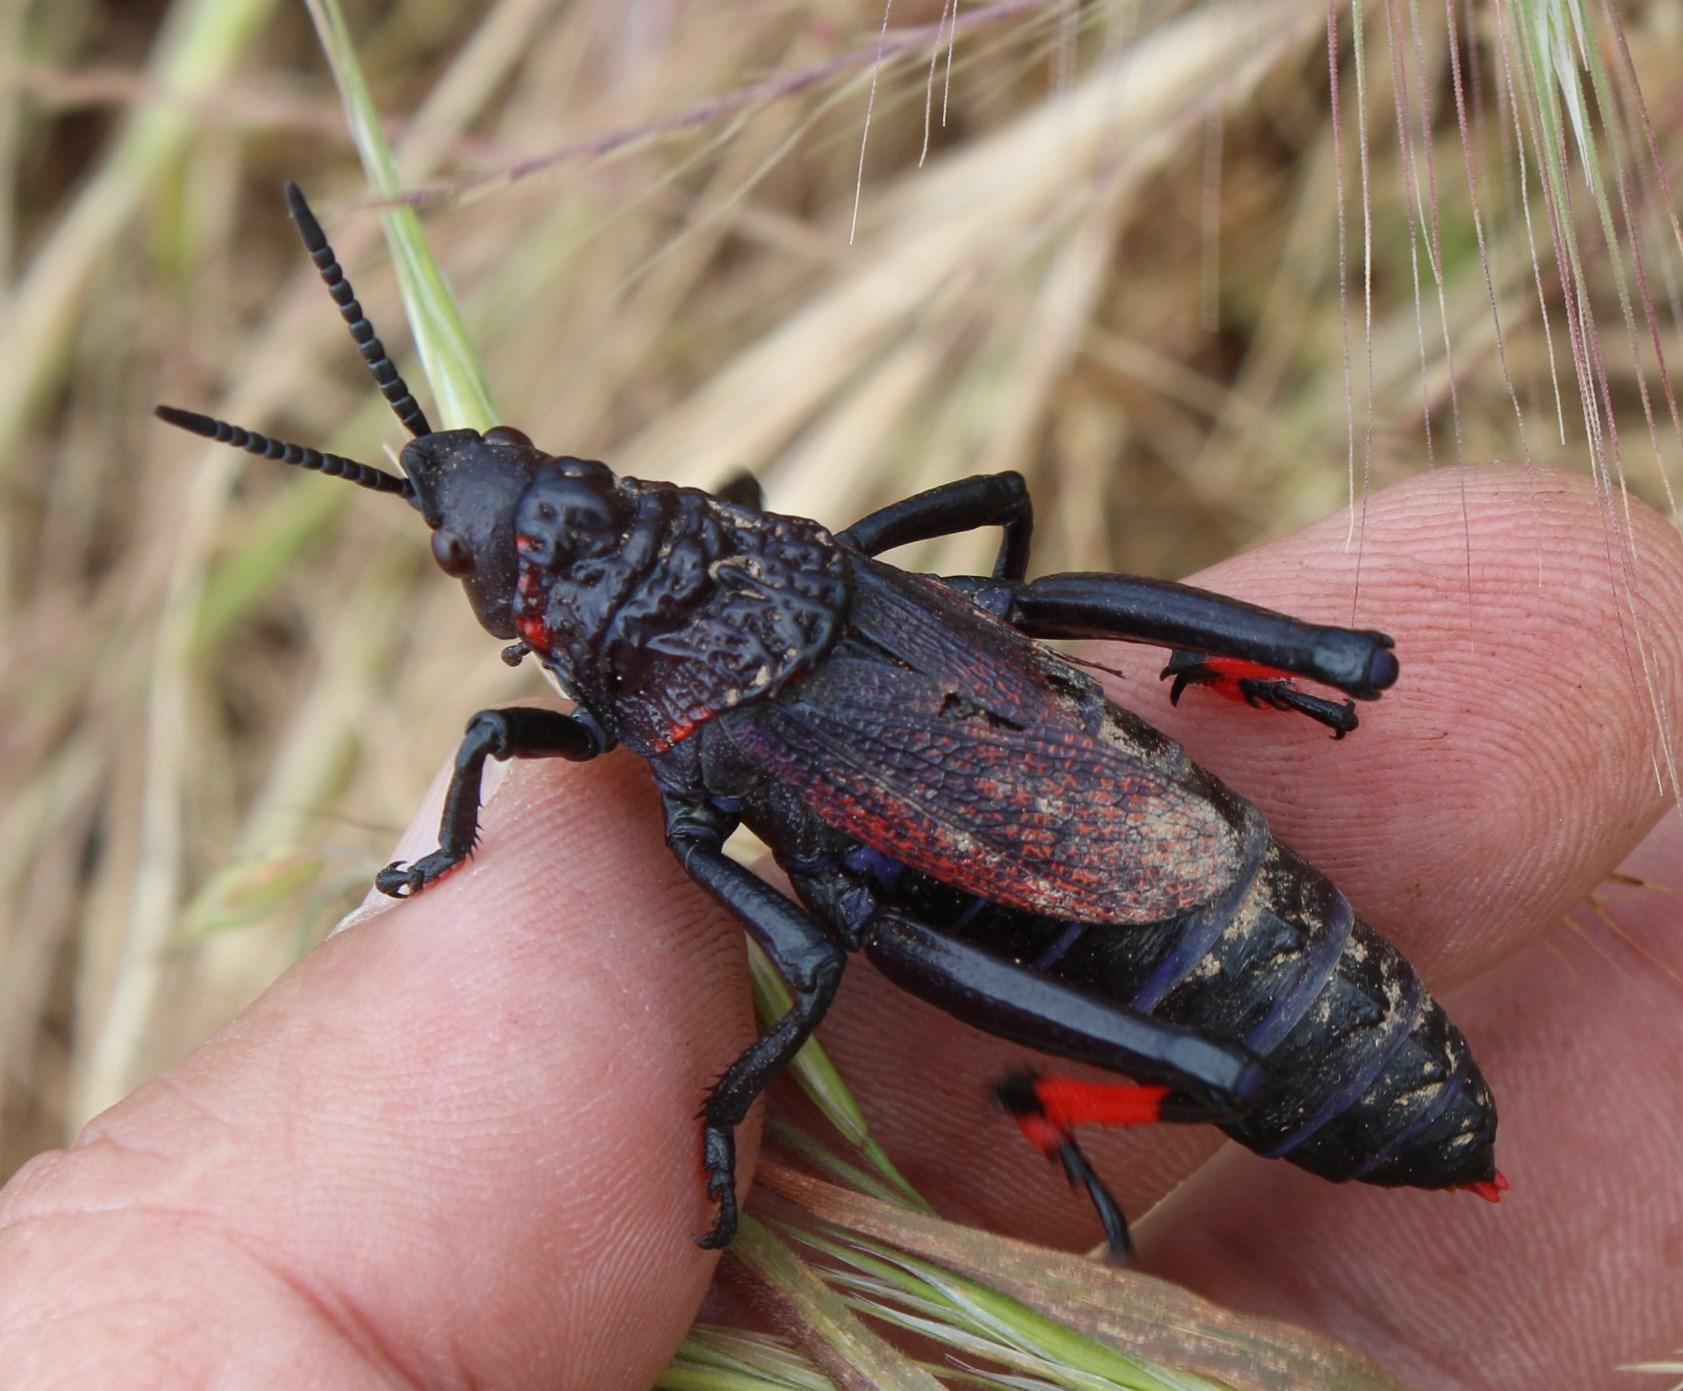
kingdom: Animalia
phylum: Arthropoda
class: Insecta
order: Orthoptera
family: Pyrgomorphidae
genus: Dictyophorus
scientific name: Dictyophorus spumans
